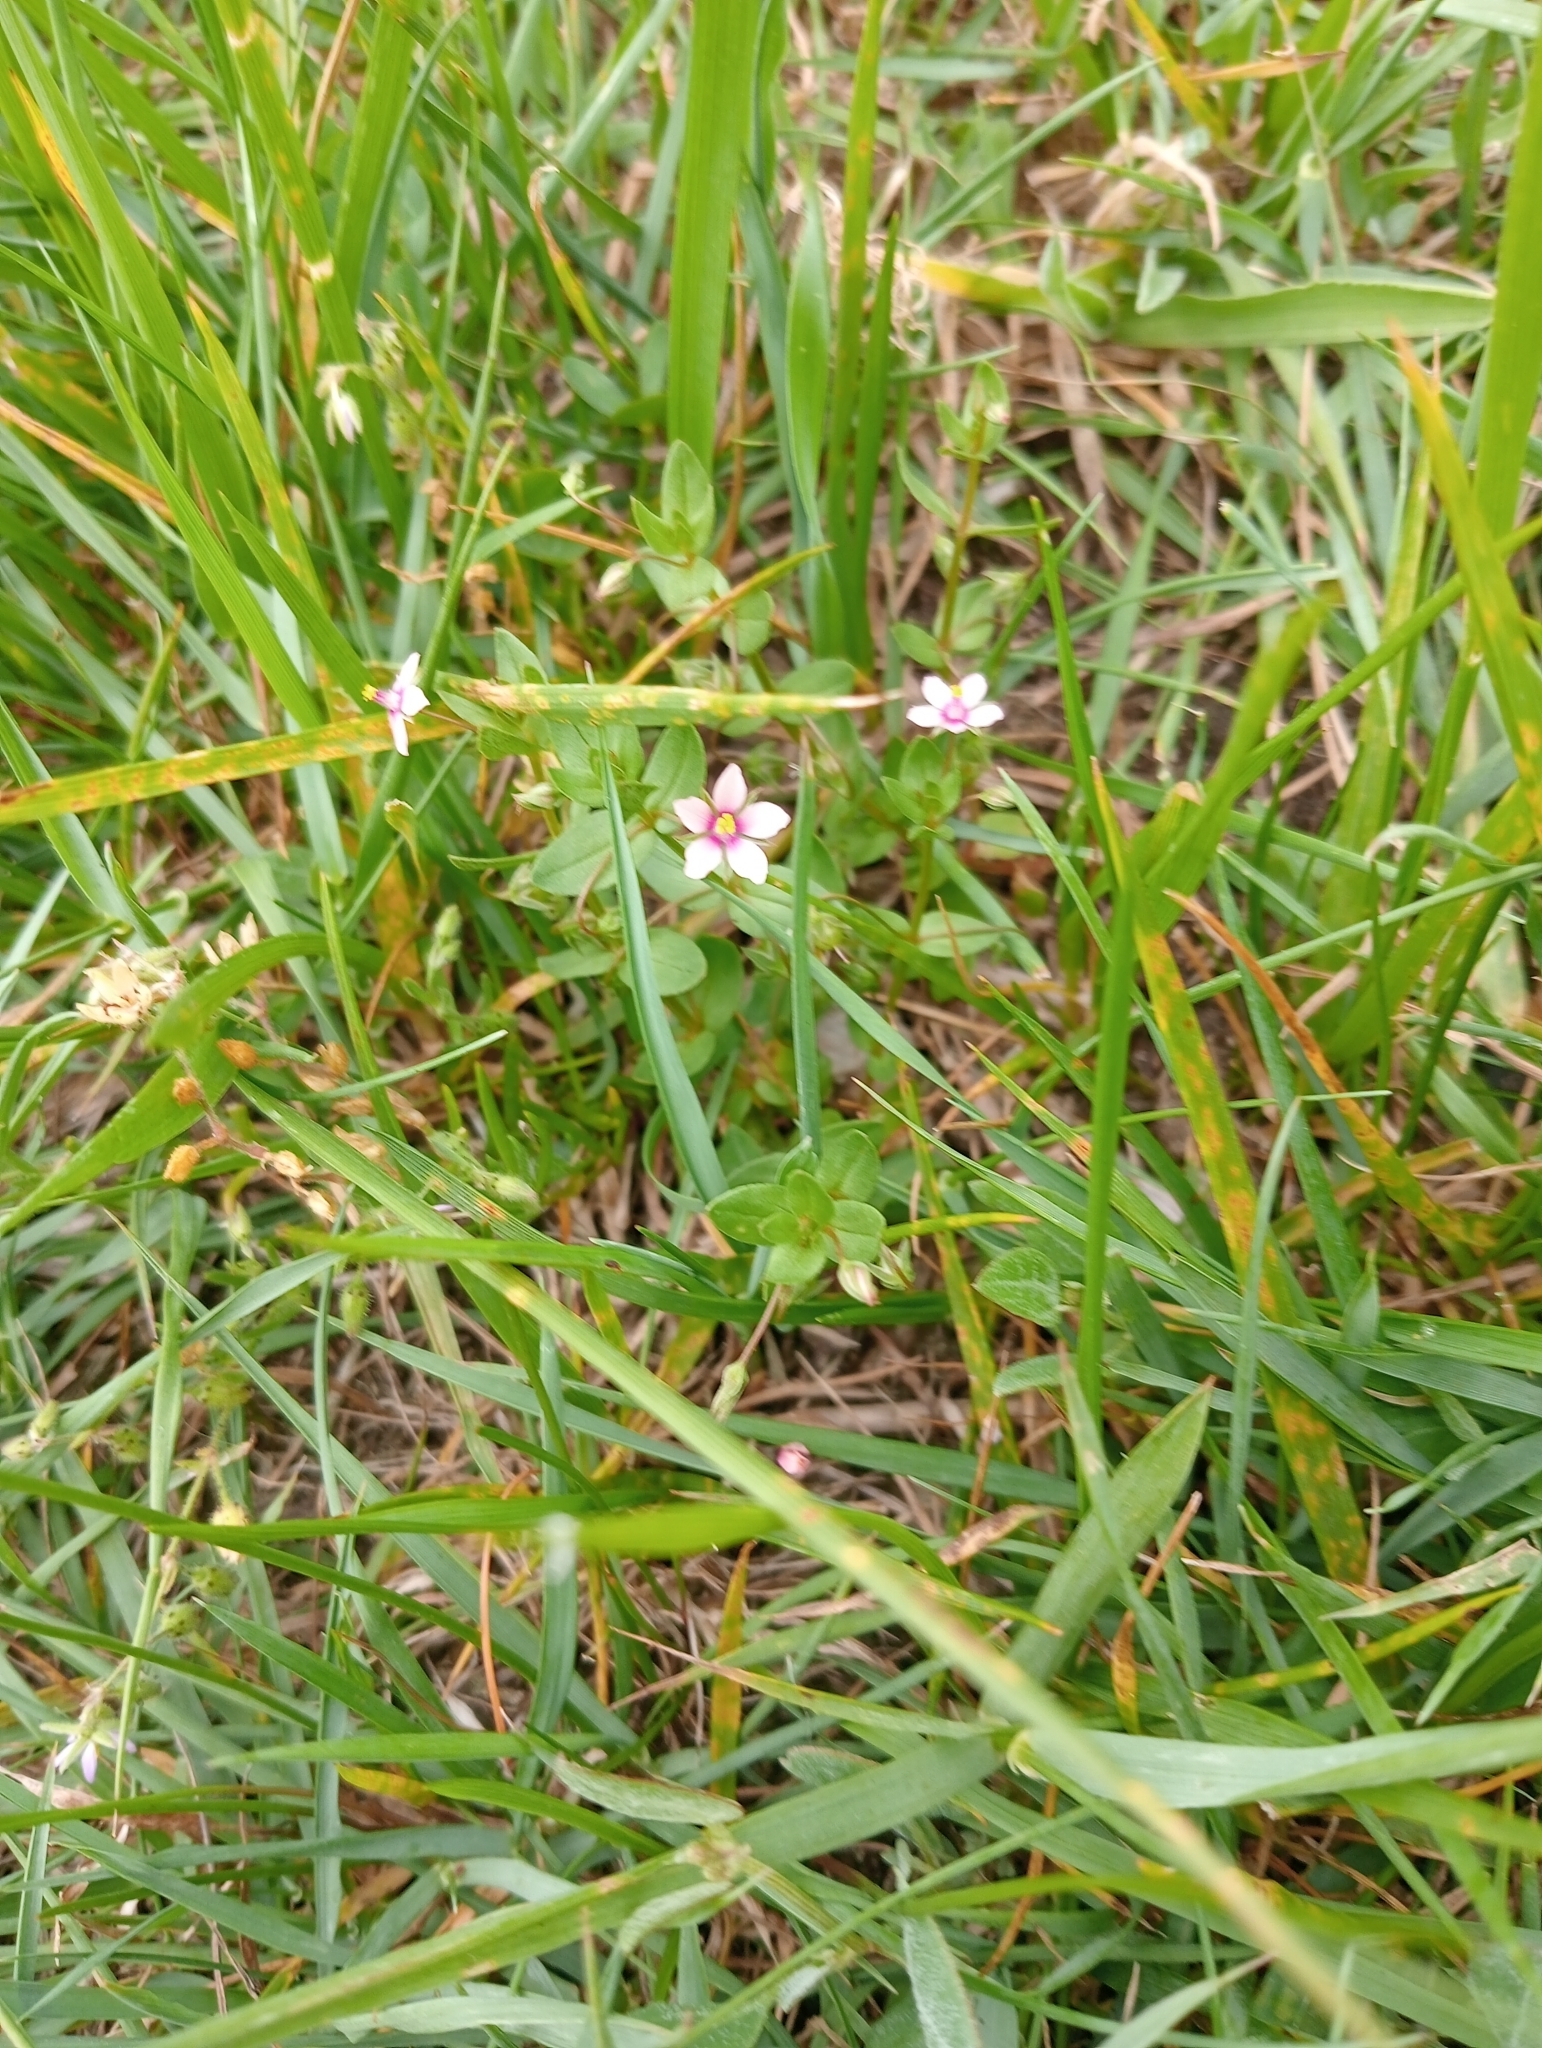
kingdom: Plantae
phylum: Tracheophyta
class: Magnoliopsida
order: Ericales
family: Primulaceae
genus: Lysimachia
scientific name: Lysimachia arvensis
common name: Scarlet pimpernel
